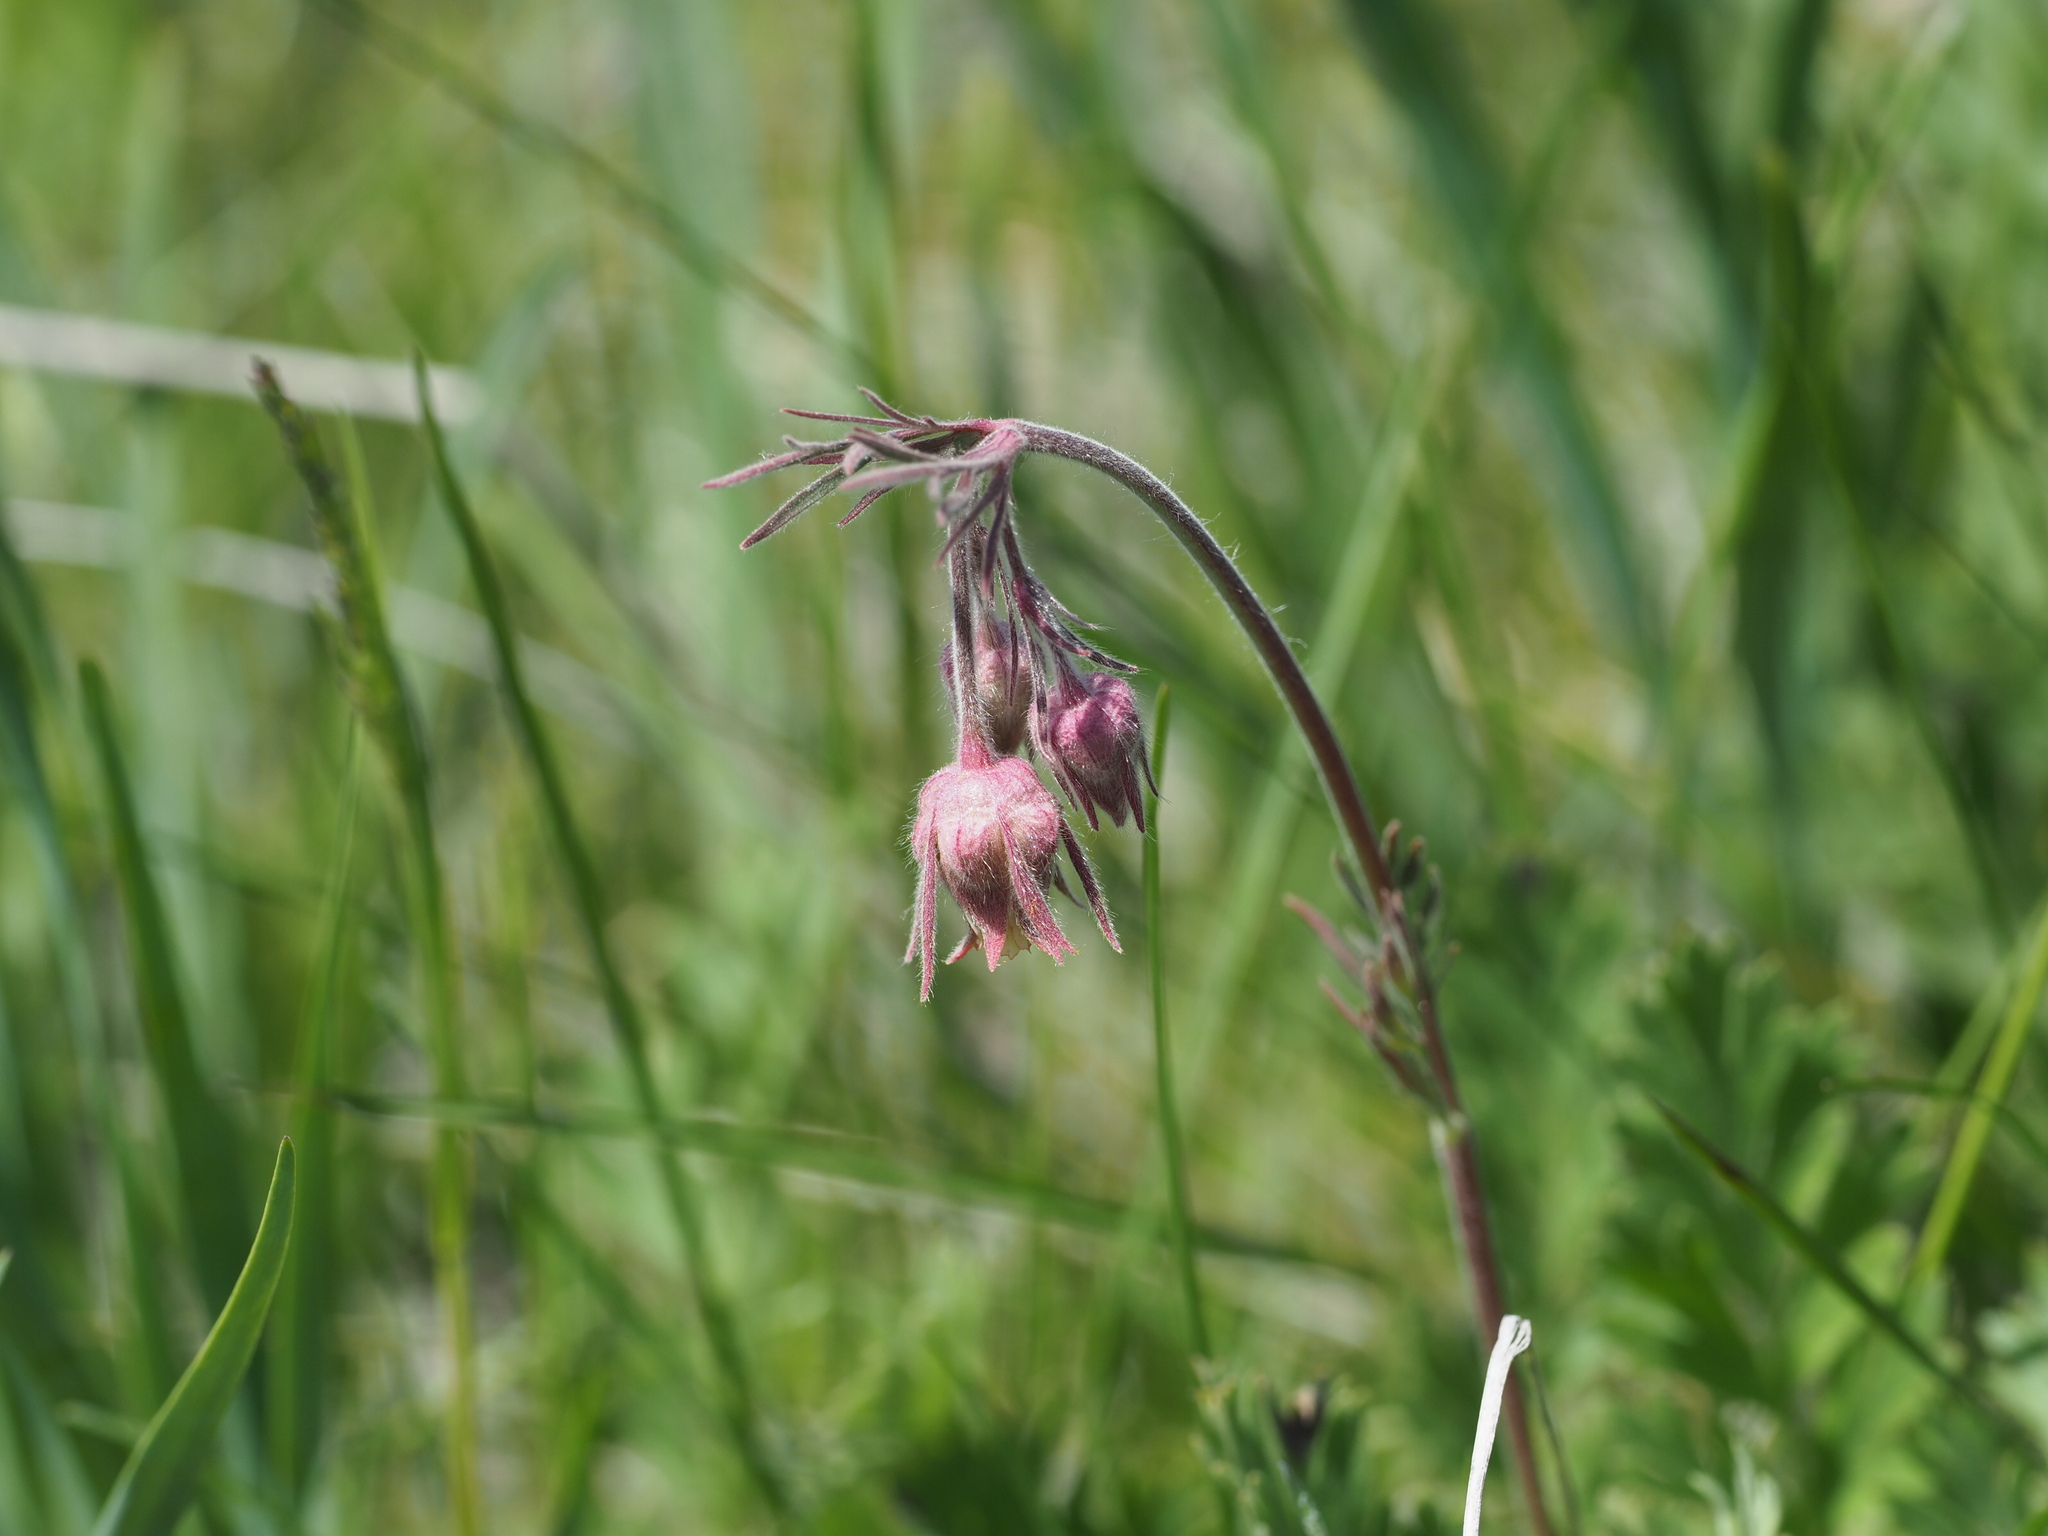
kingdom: Plantae
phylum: Tracheophyta
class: Magnoliopsida
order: Rosales
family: Rosaceae
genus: Geum
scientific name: Geum triflorum
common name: Old man's whiskers
